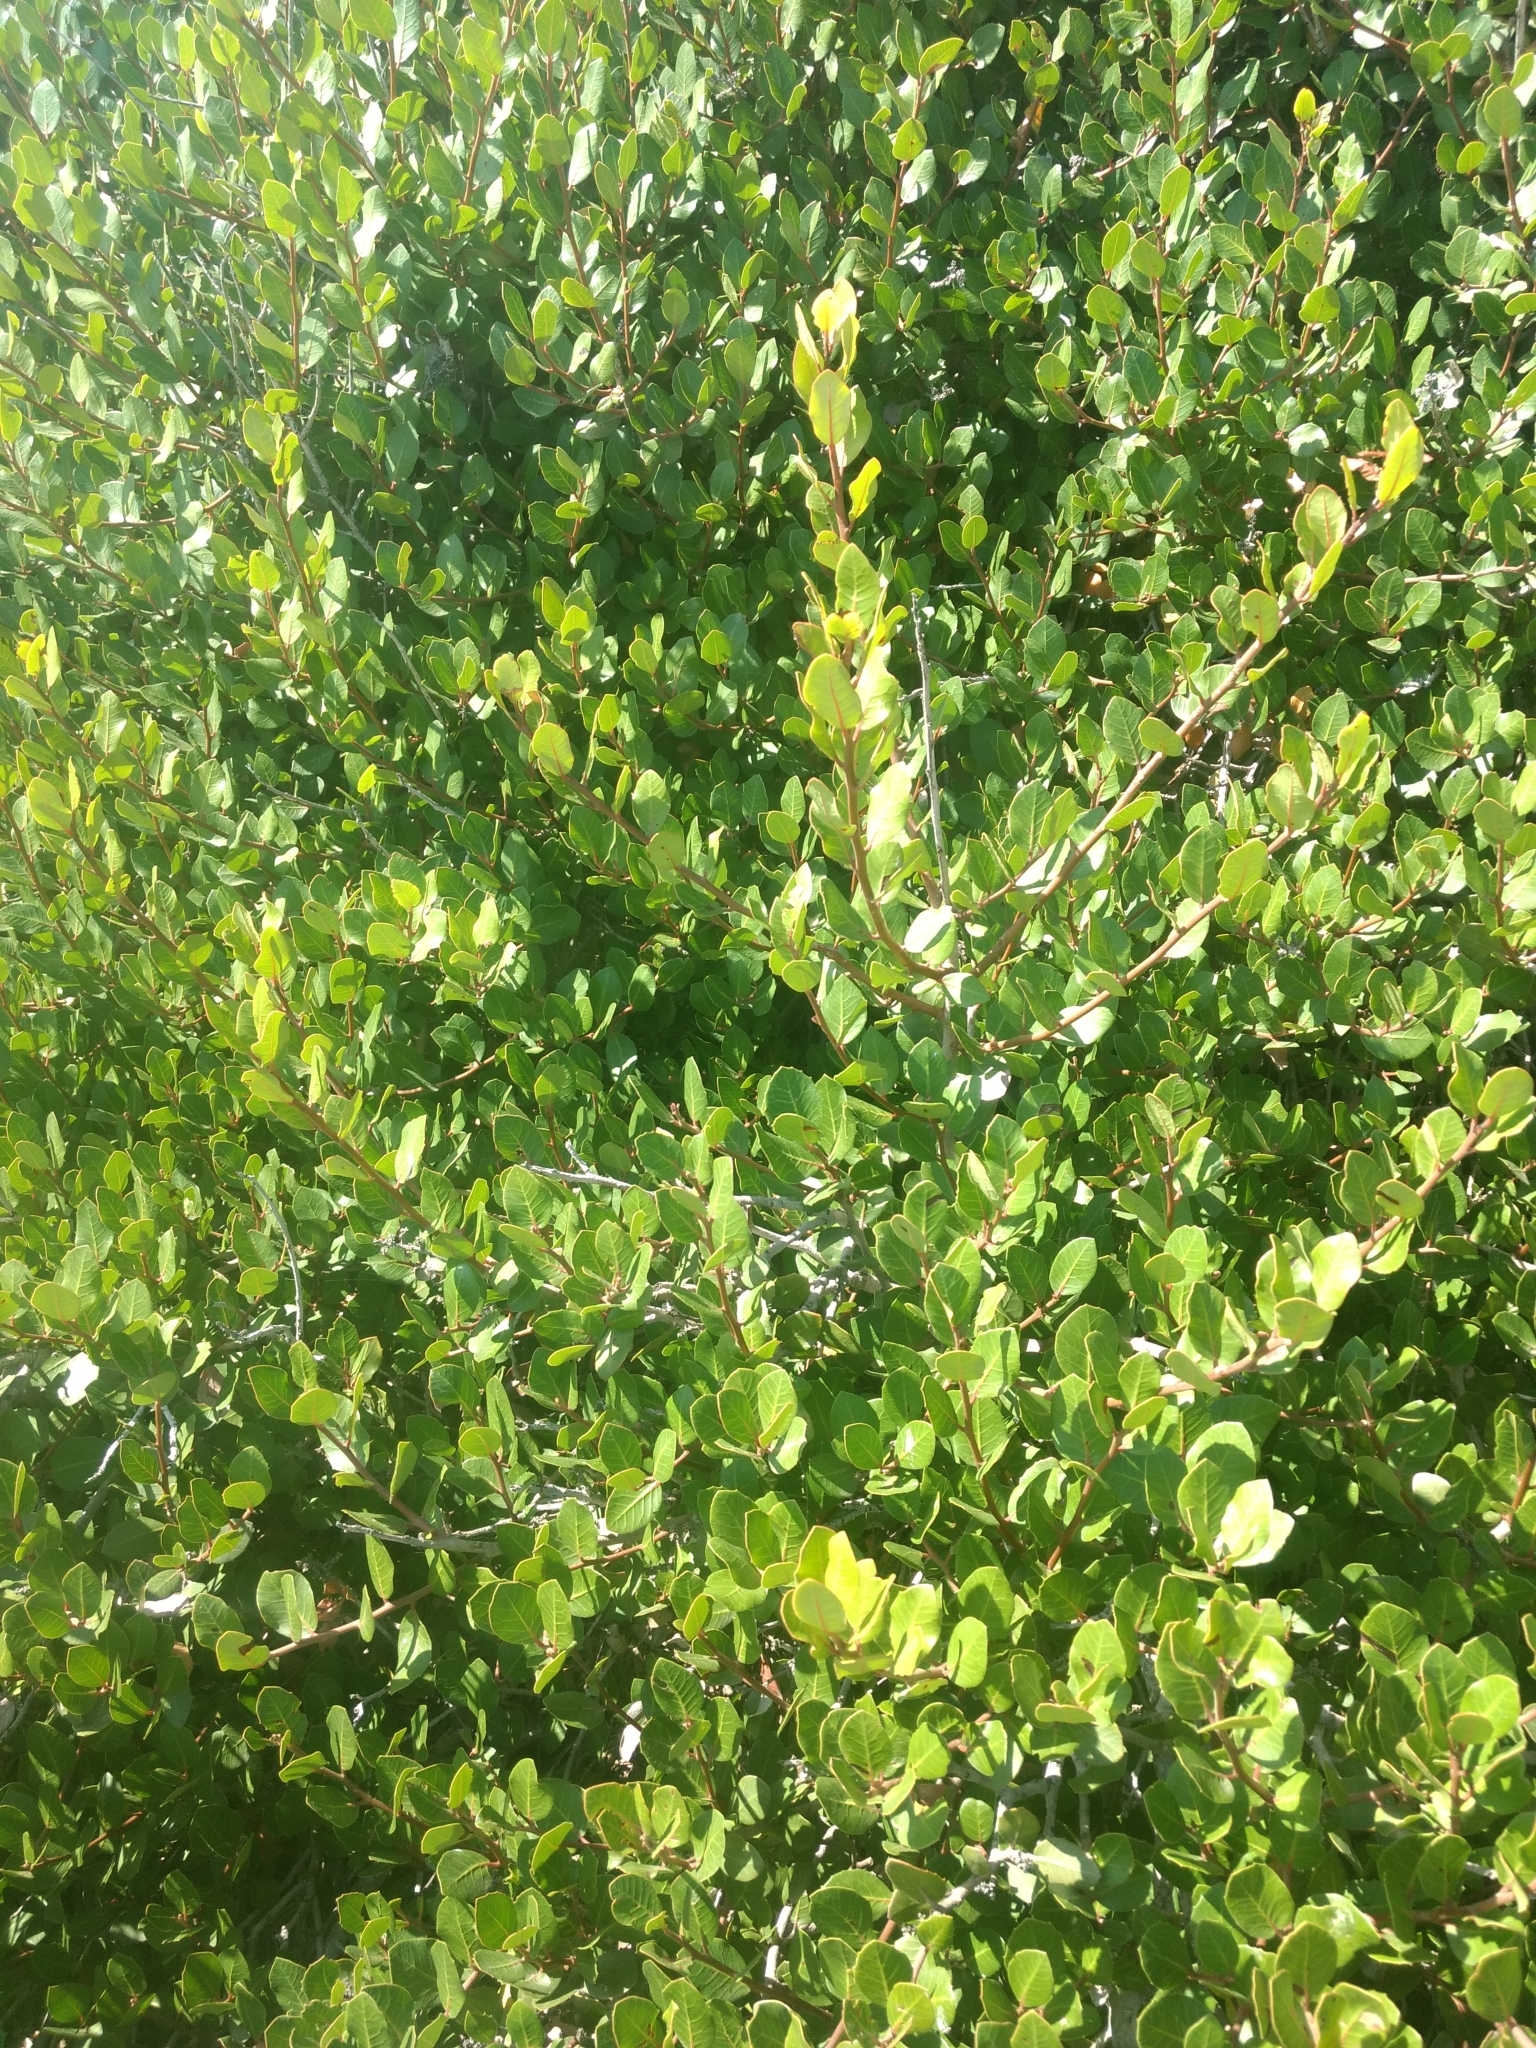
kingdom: Plantae
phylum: Tracheophyta
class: Magnoliopsida
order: Sapindales
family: Anacardiaceae
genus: Rhus
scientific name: Rhus integrifolia
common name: Lemonade sumac
